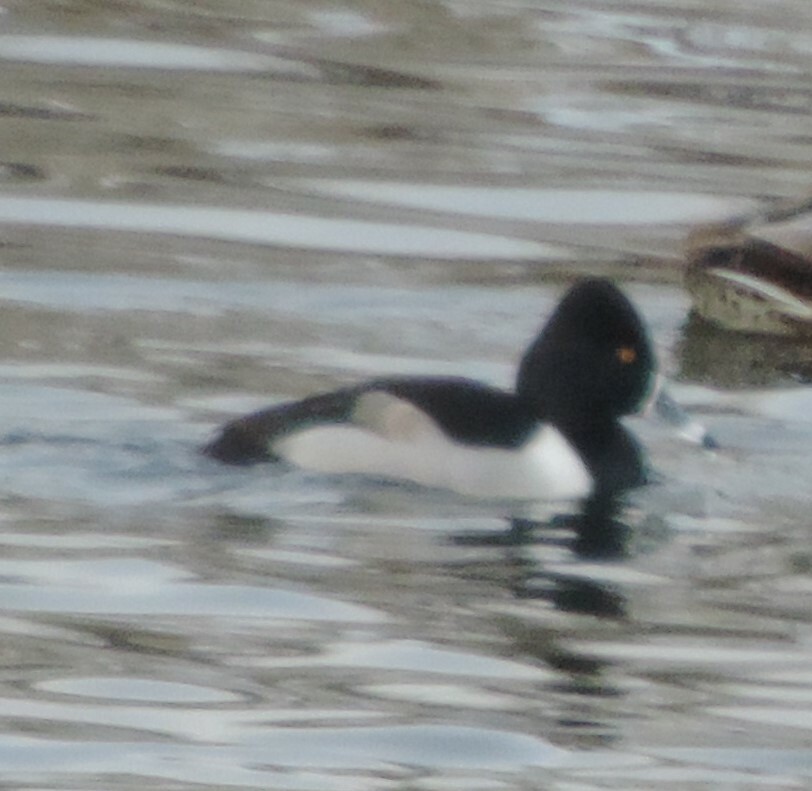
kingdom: Animalia
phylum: Chordata
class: Aves
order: Anseriformes
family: Anatidae
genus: Aythya
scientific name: Aythya collaris
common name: Ring-necked duck
